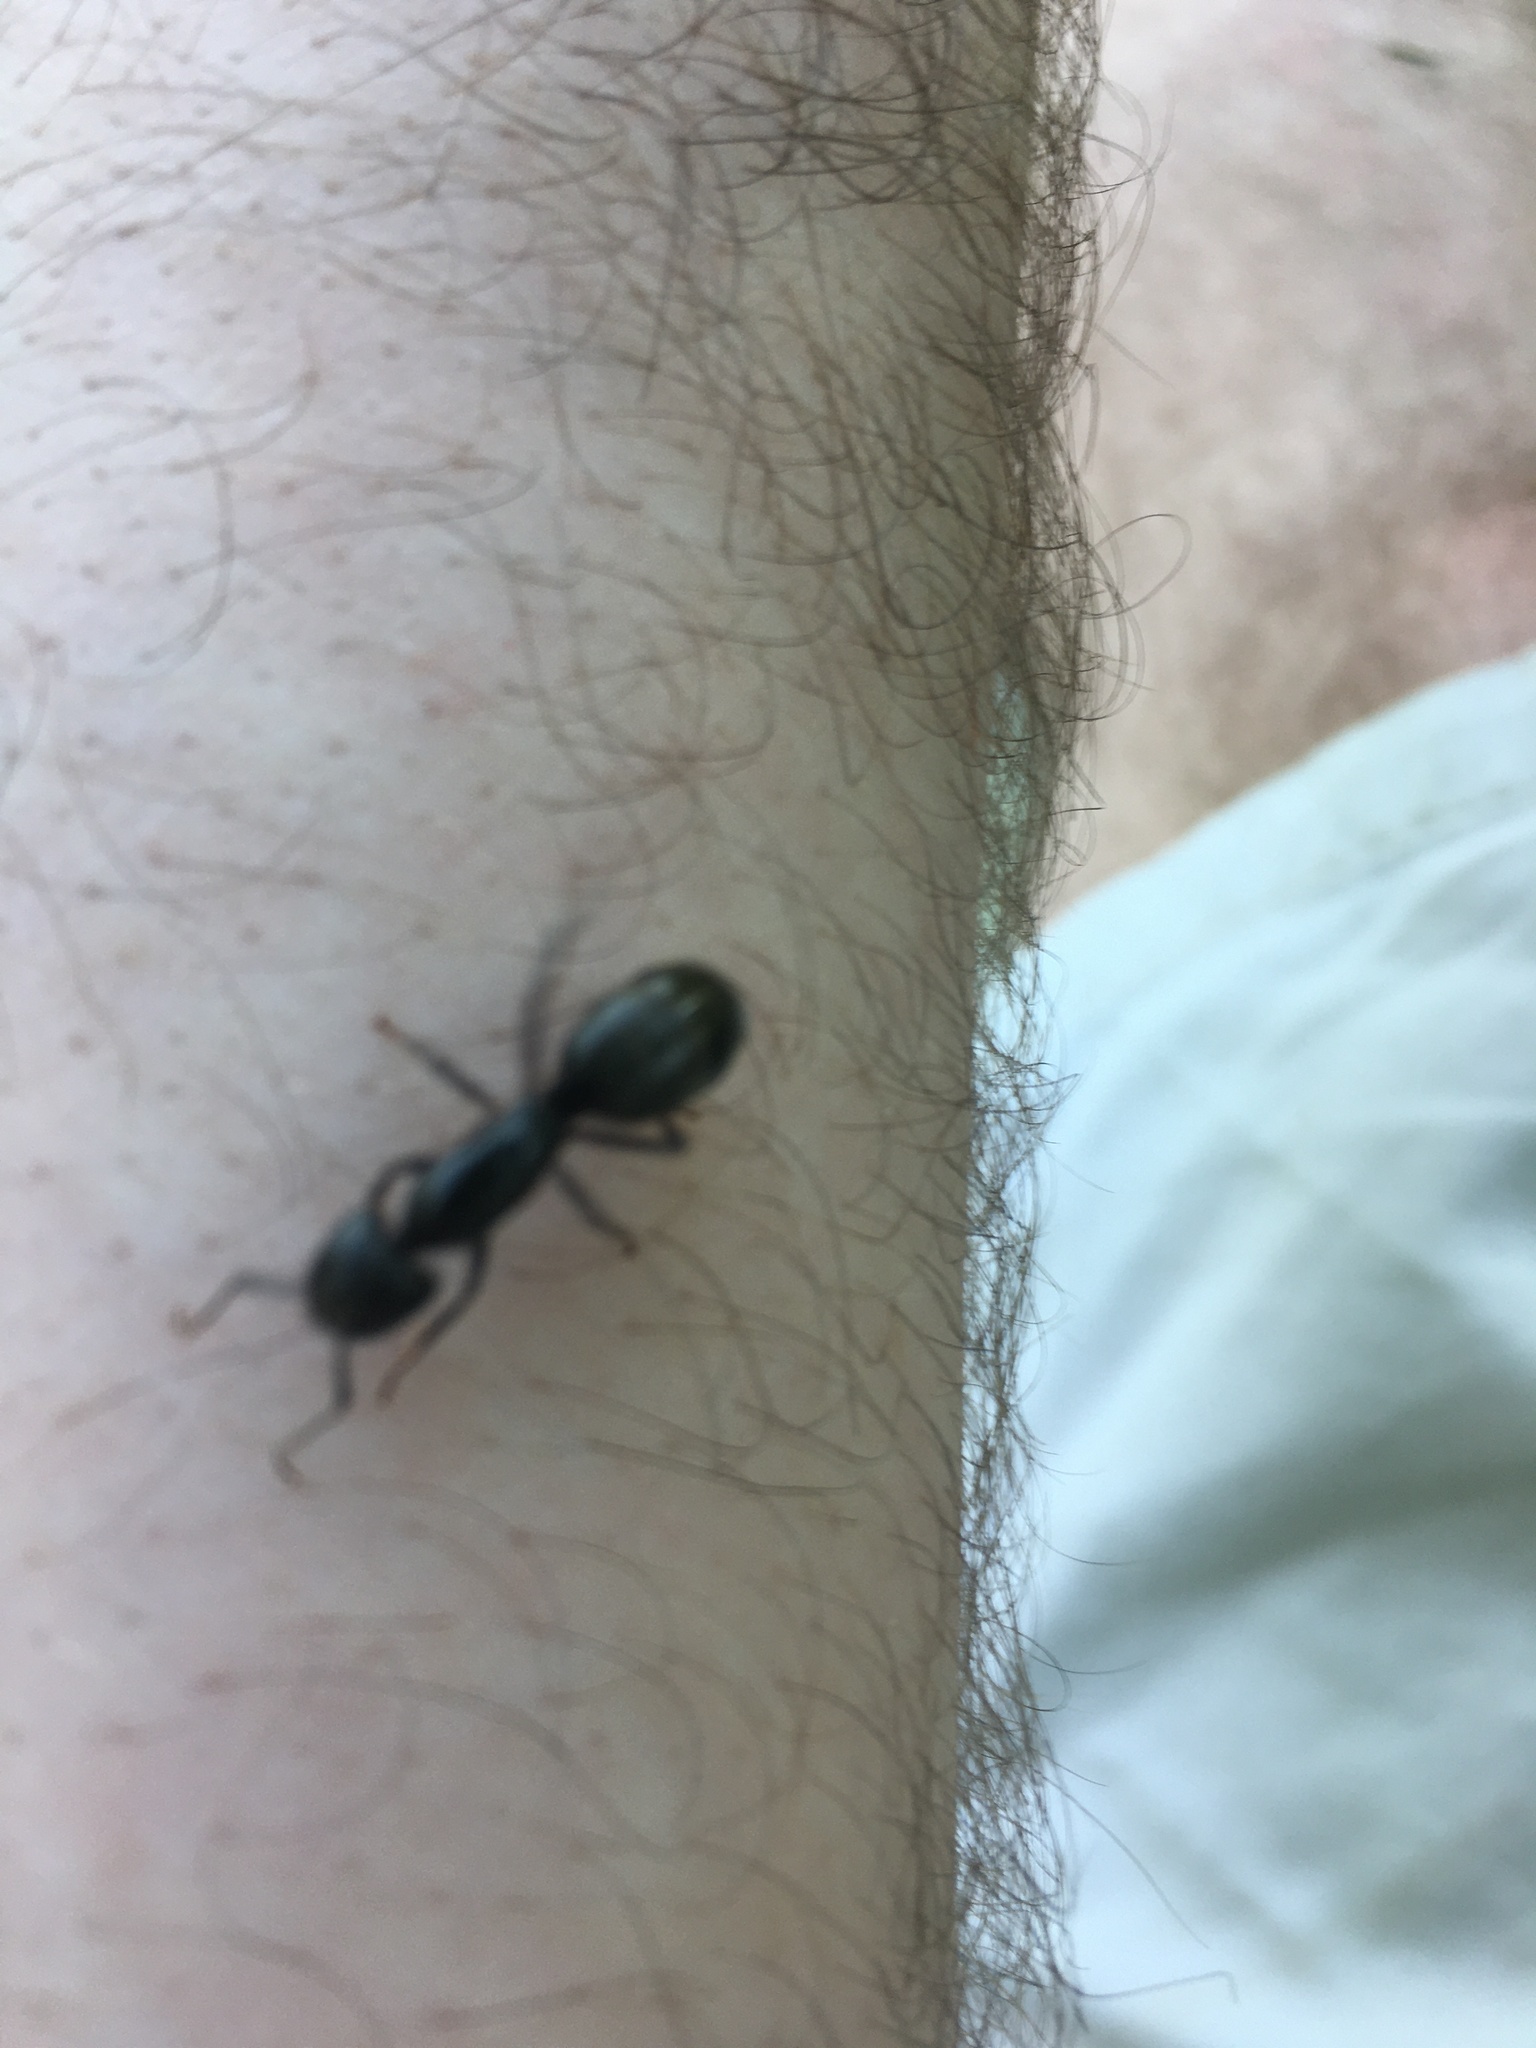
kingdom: Animalia
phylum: Arthropoda
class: Insecta
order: Hymenoptera
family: Formicidae
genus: Camponotus
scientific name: Camponotus pennsylvanicus
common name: Black carpenter ant
